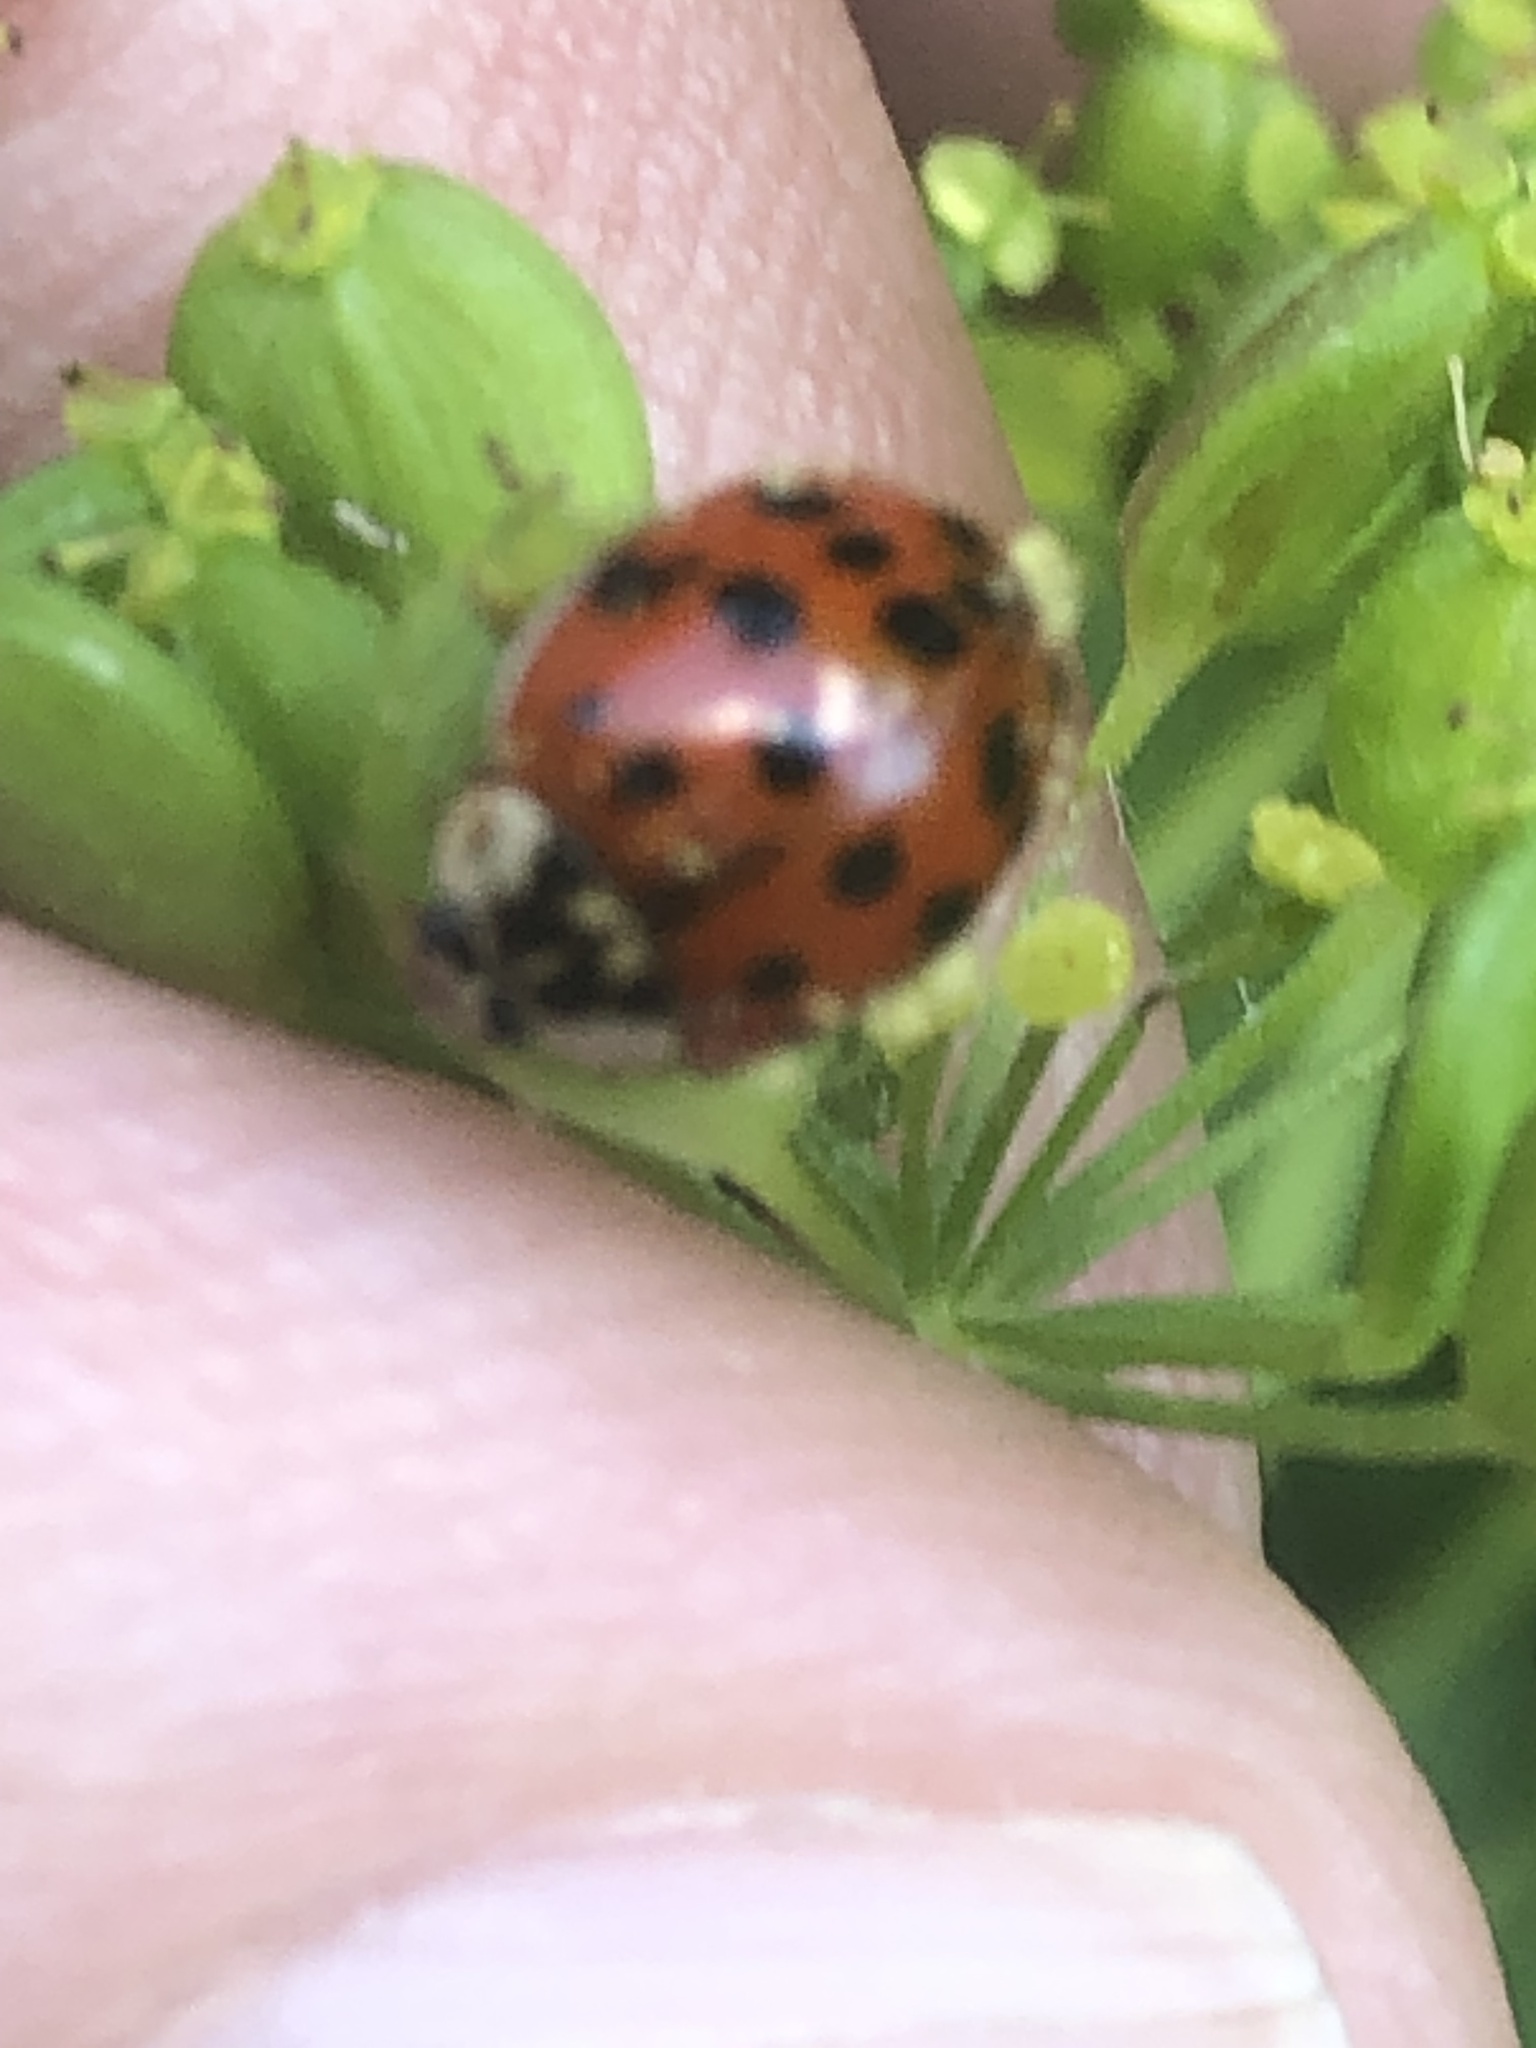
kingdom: Animalia
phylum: Arthropoda
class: Insecta
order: Coleoptera
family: Coccinellidae
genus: Harmonia
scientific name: Harmonia axyridis
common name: Harlequin ladybird
